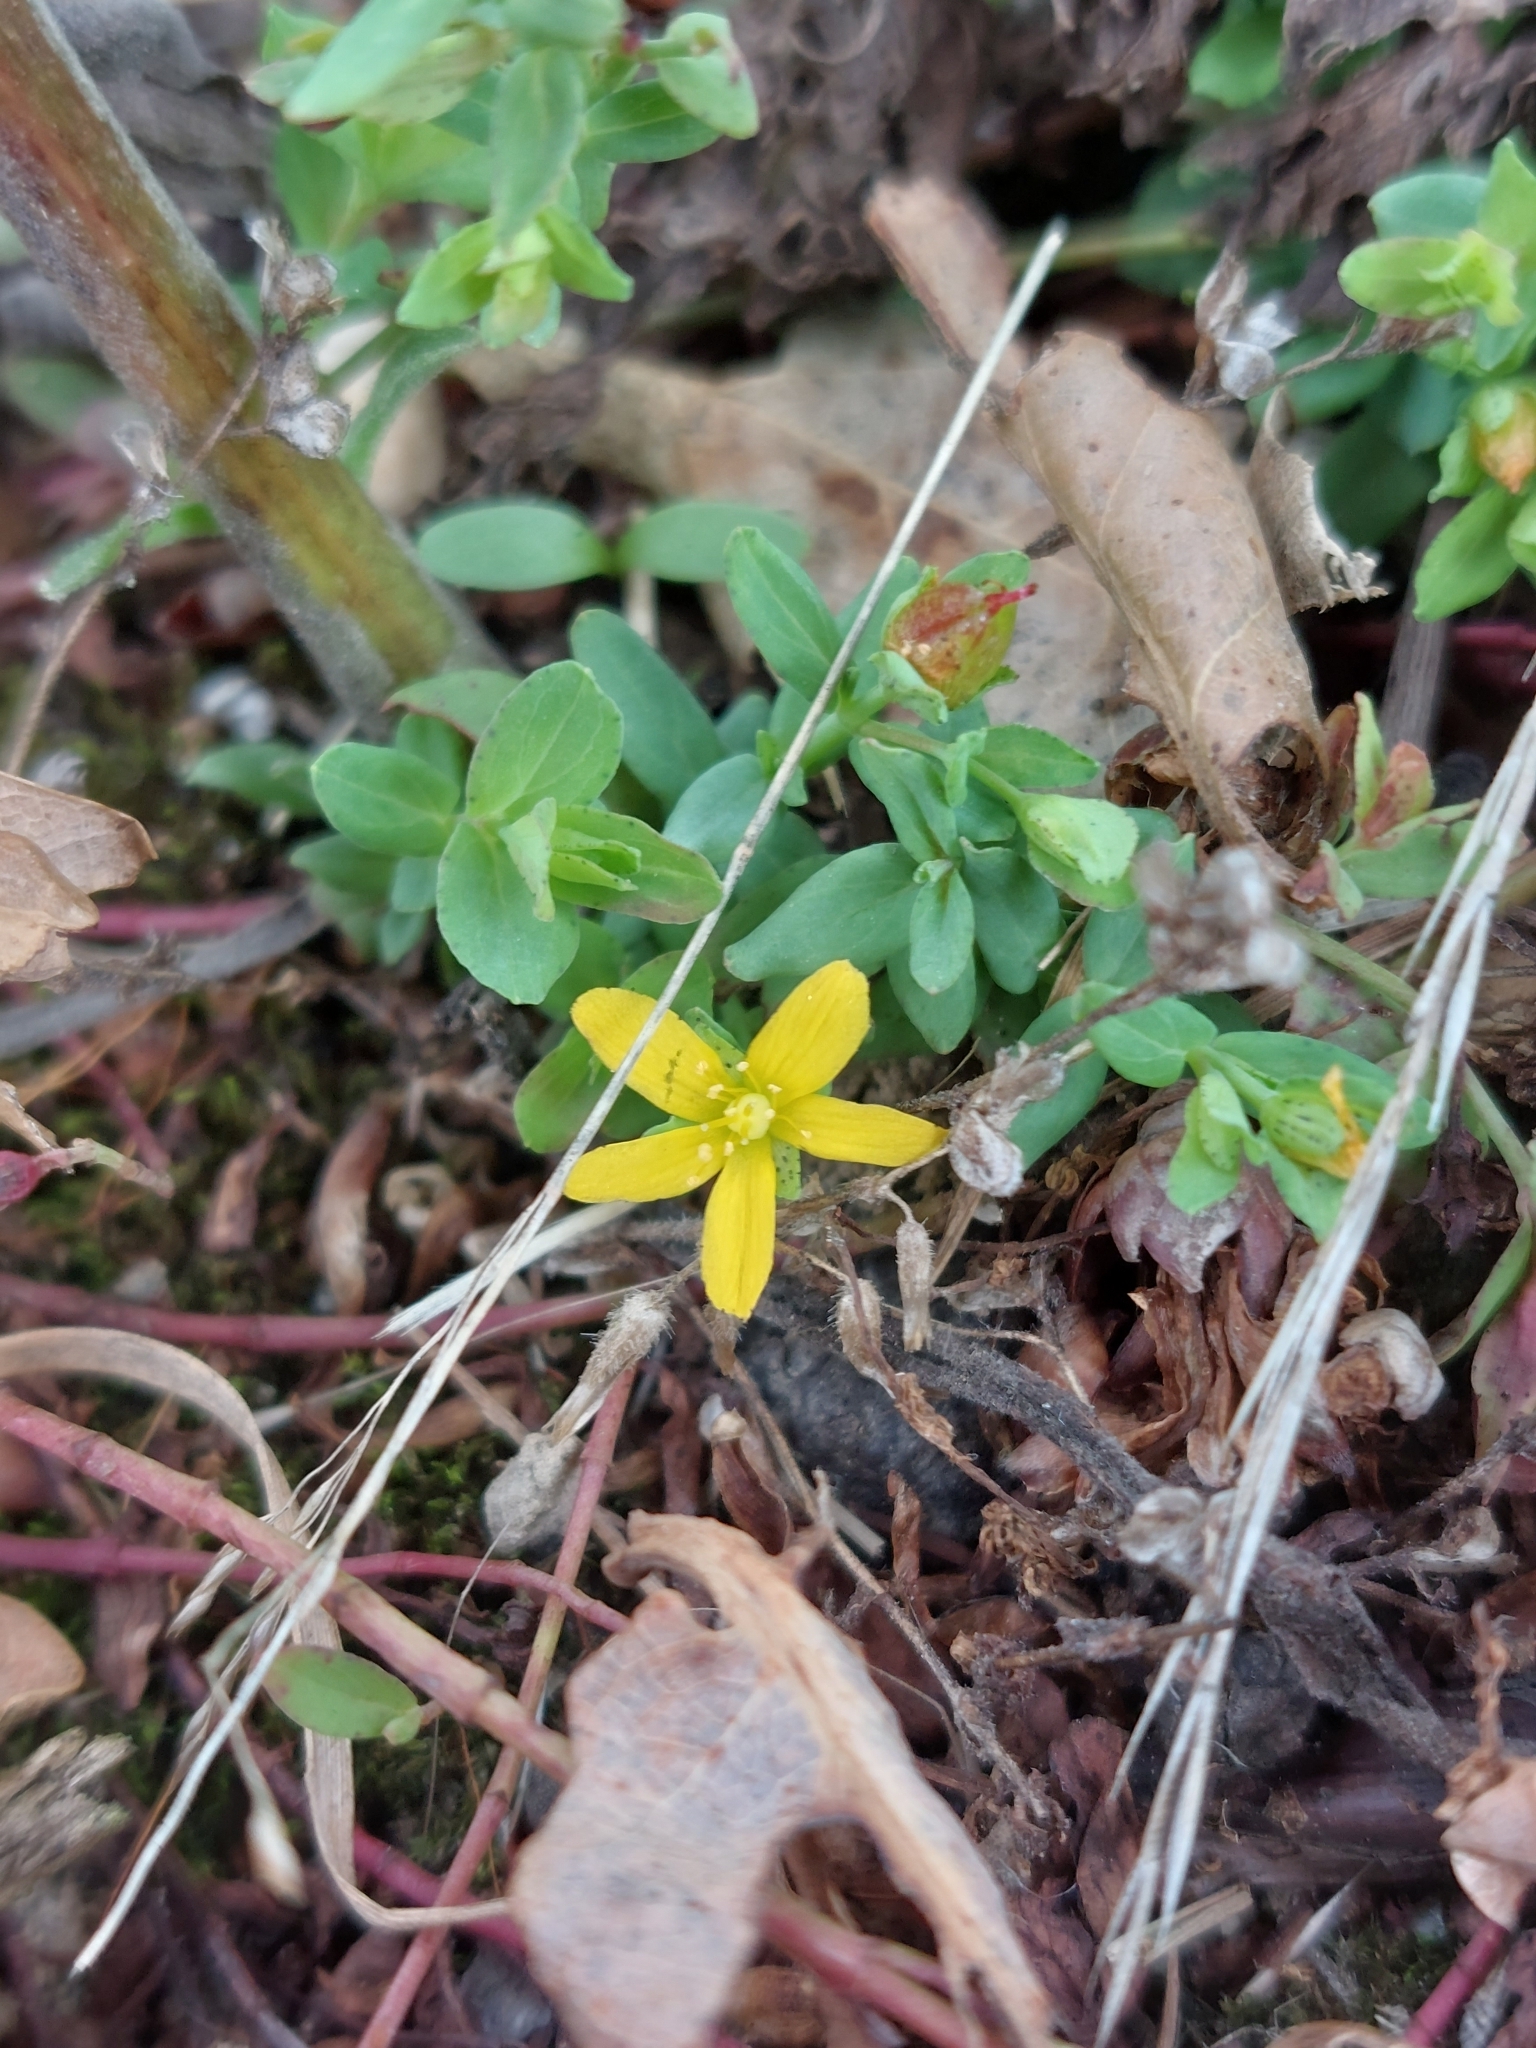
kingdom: Plantae
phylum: Tracheophyta
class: Magnoliopsida
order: Malpighiales
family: Hypericaceae
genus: Hypericum
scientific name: Hypericum humifusum
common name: Trailing st. john's-wort
